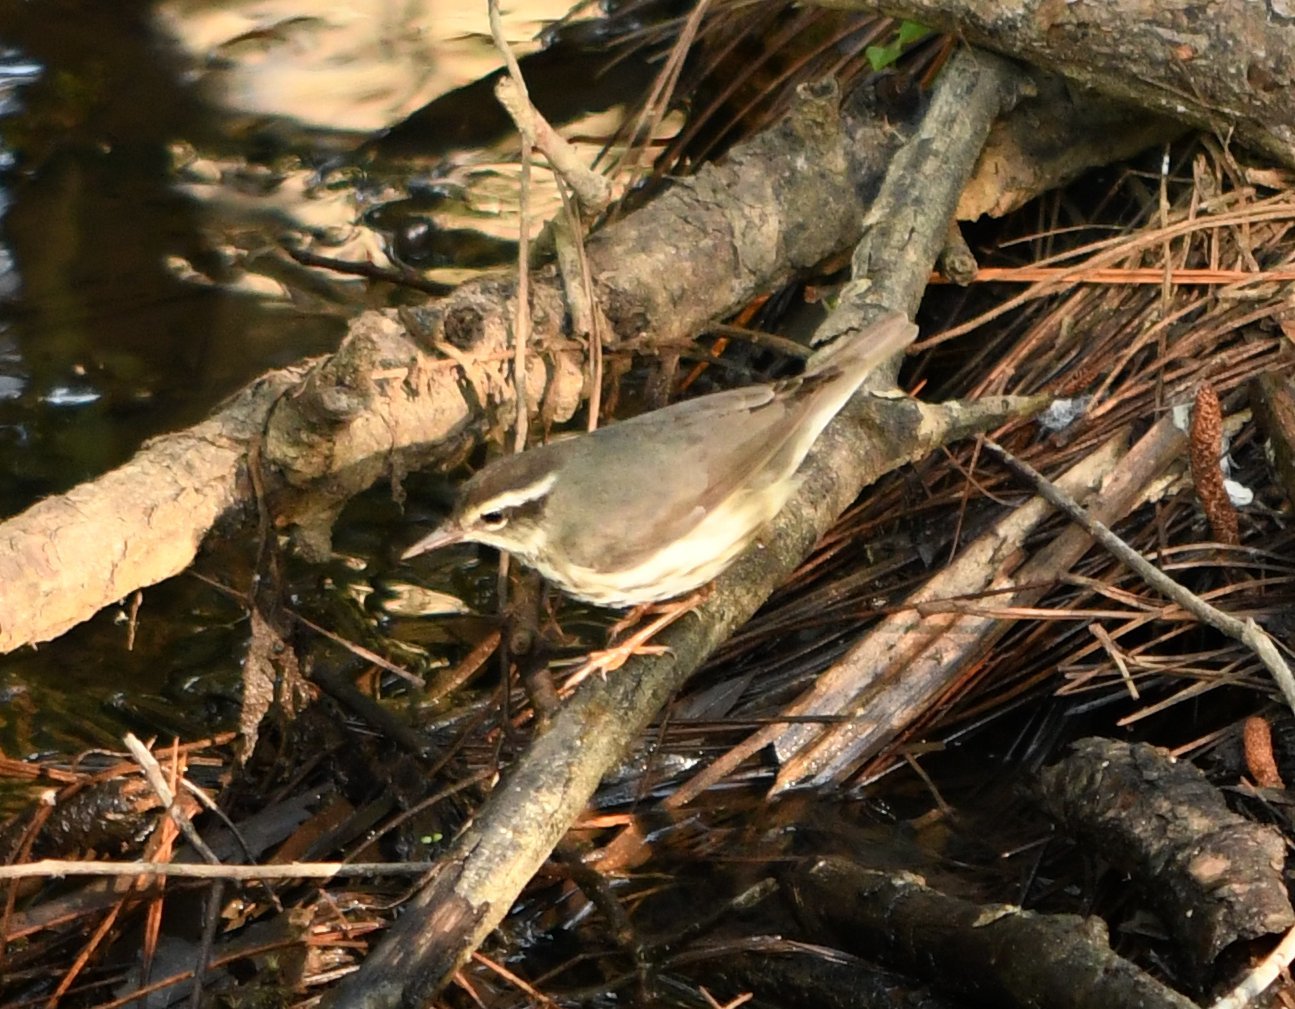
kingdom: Animalia
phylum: Chordata
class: Aves
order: Passeriformes
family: Parulidae
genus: Parkesia
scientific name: Parkesia motacilla
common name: Louisiana waterthrush
